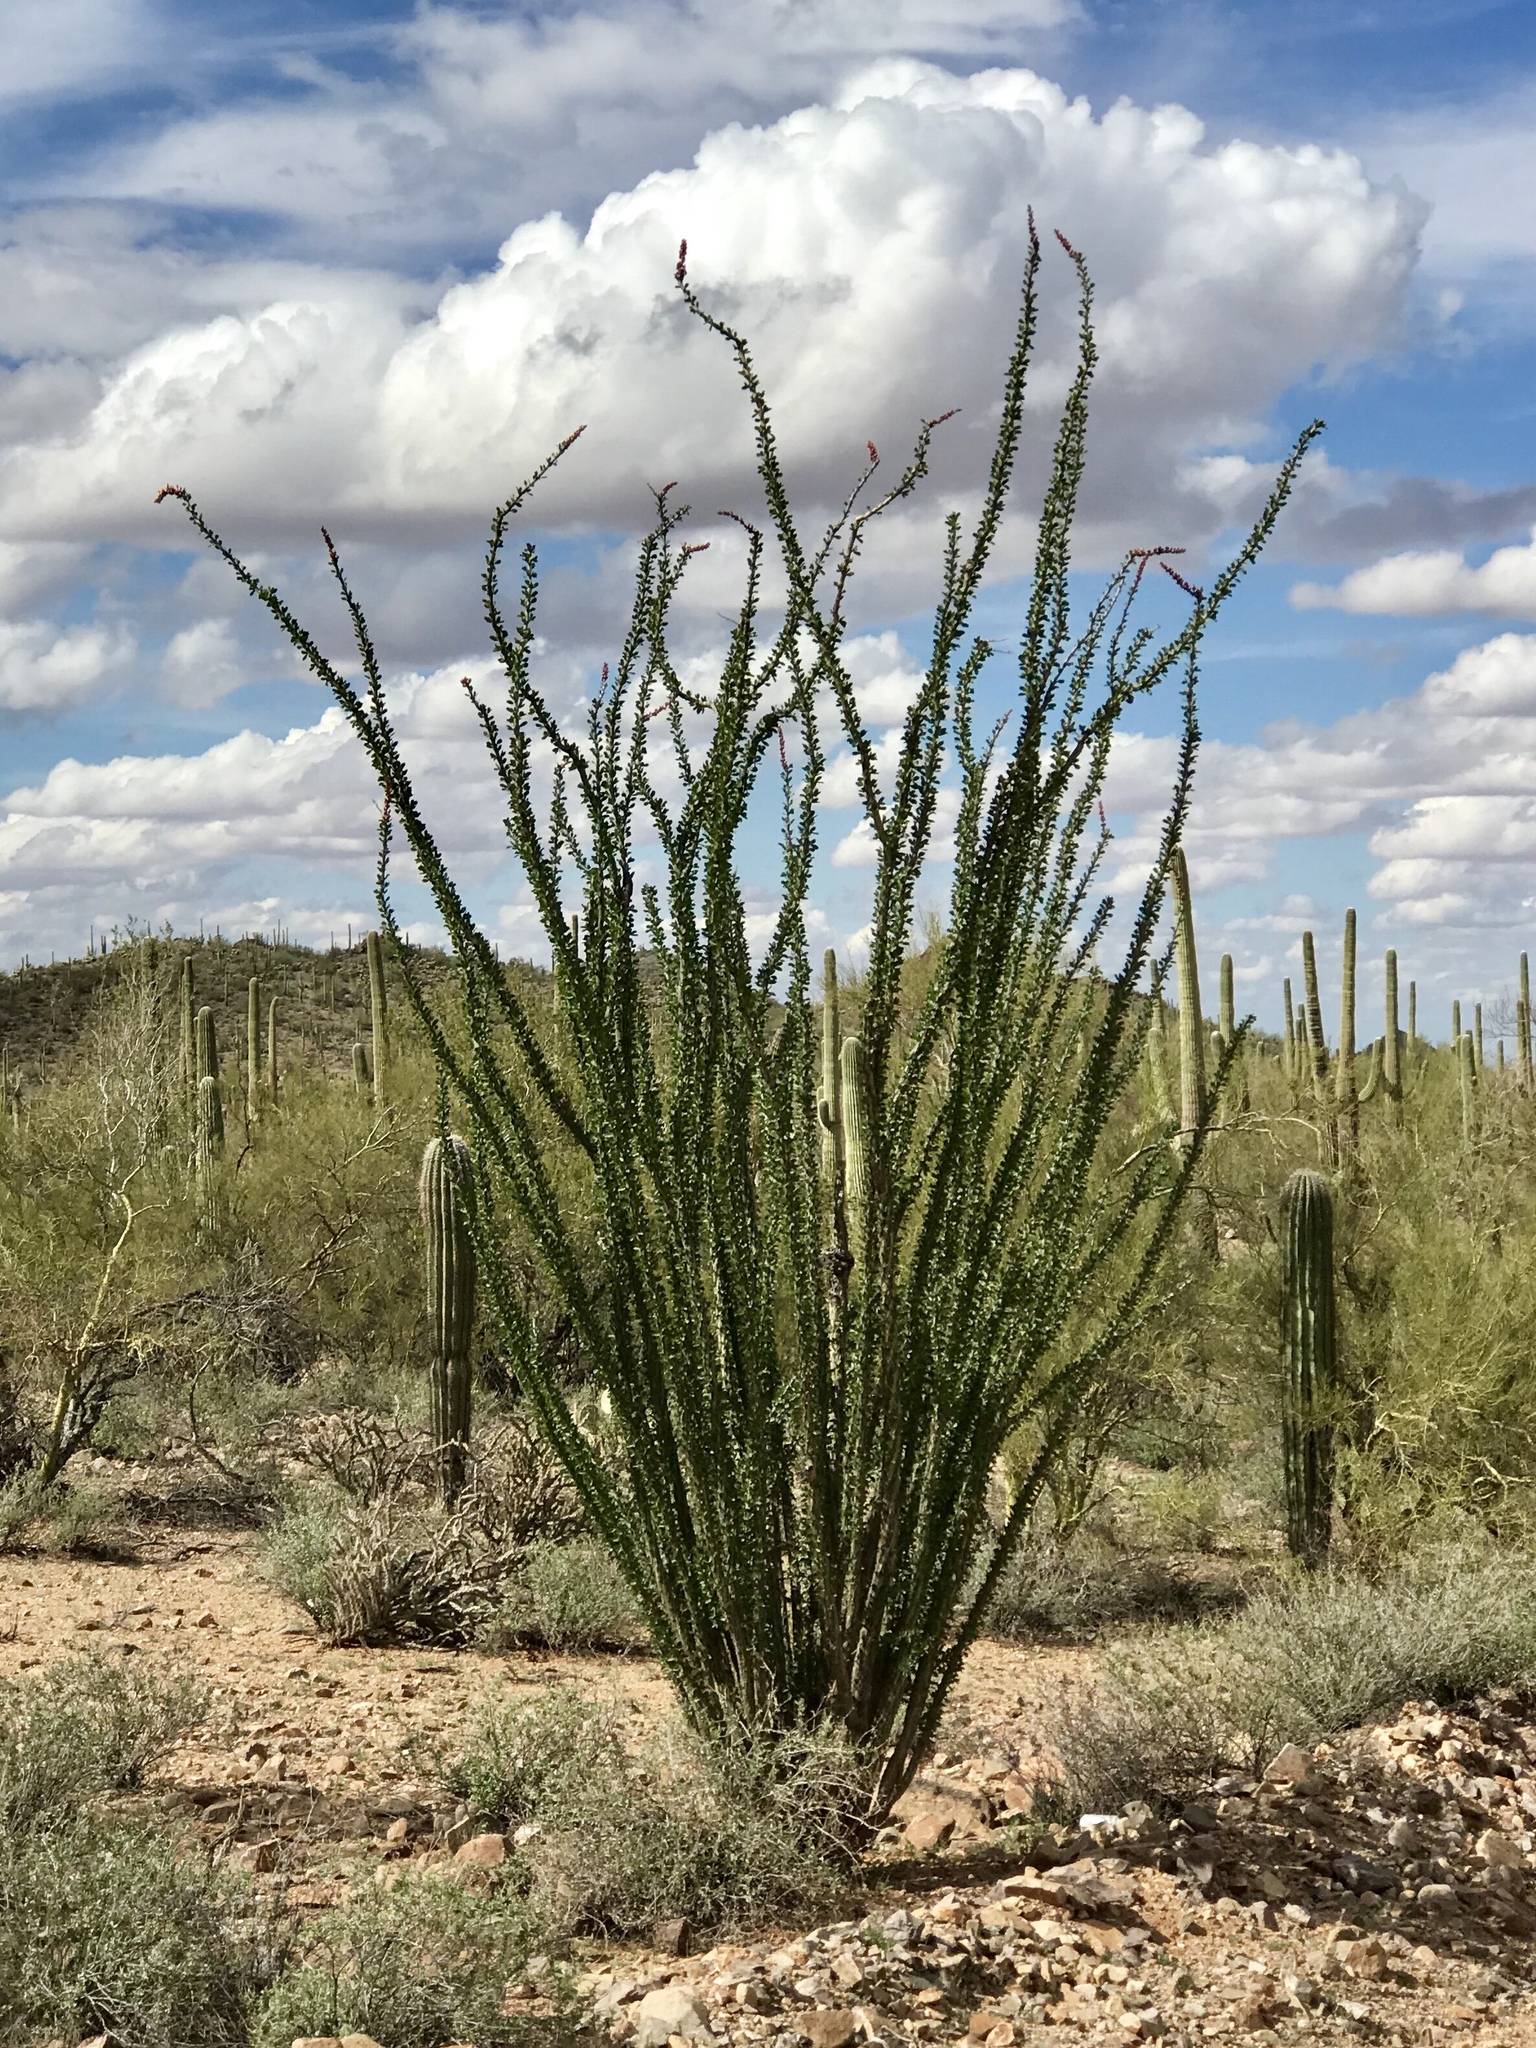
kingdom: Plantae
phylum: Tracheophyta
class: Magnoliopsida
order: Ericales
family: Fouquieriaceae
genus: Fouquieria
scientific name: Fouquieria splendens
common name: Vine-cactus
